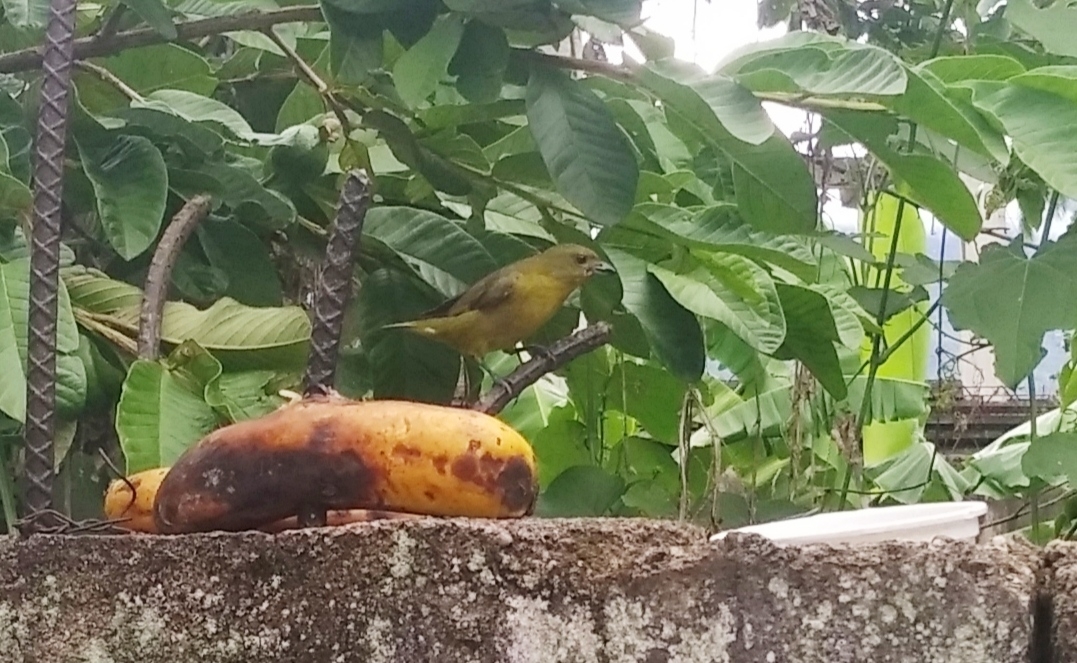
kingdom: Animalia
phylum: Chordata
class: Aves
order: Passeriformes
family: Fringillidae
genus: Euphonia
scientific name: Euphonia laniirostris
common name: Thick-billed euphonia
